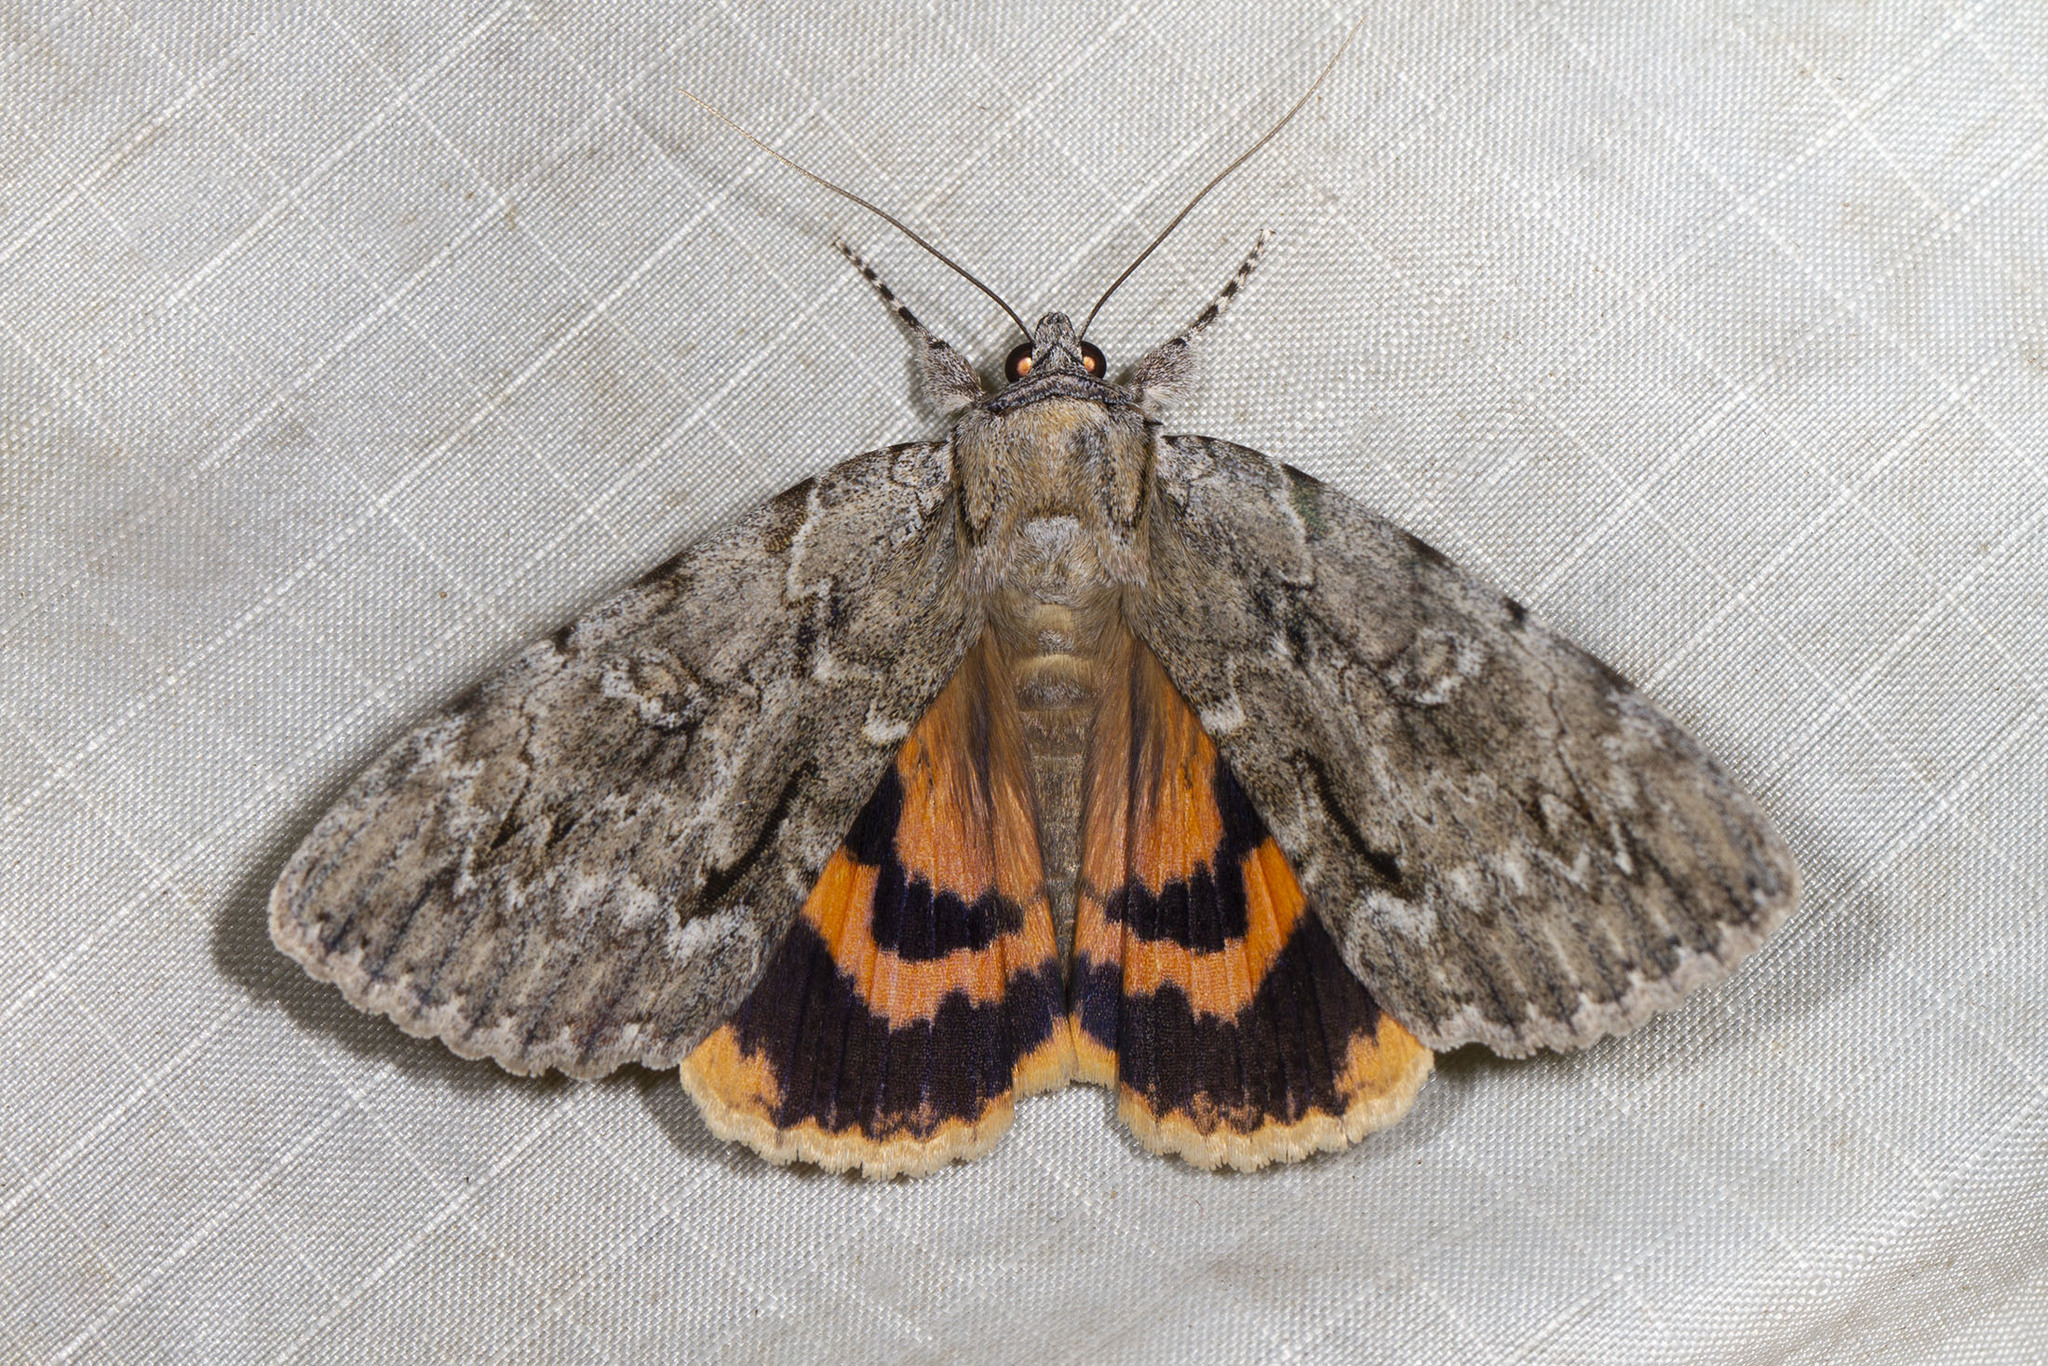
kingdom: Animalia
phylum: Arthropoda
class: Insecta
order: Lepidoptera
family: Erebidae
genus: Catocala
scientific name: Catocala habilis
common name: Habilis underwing
